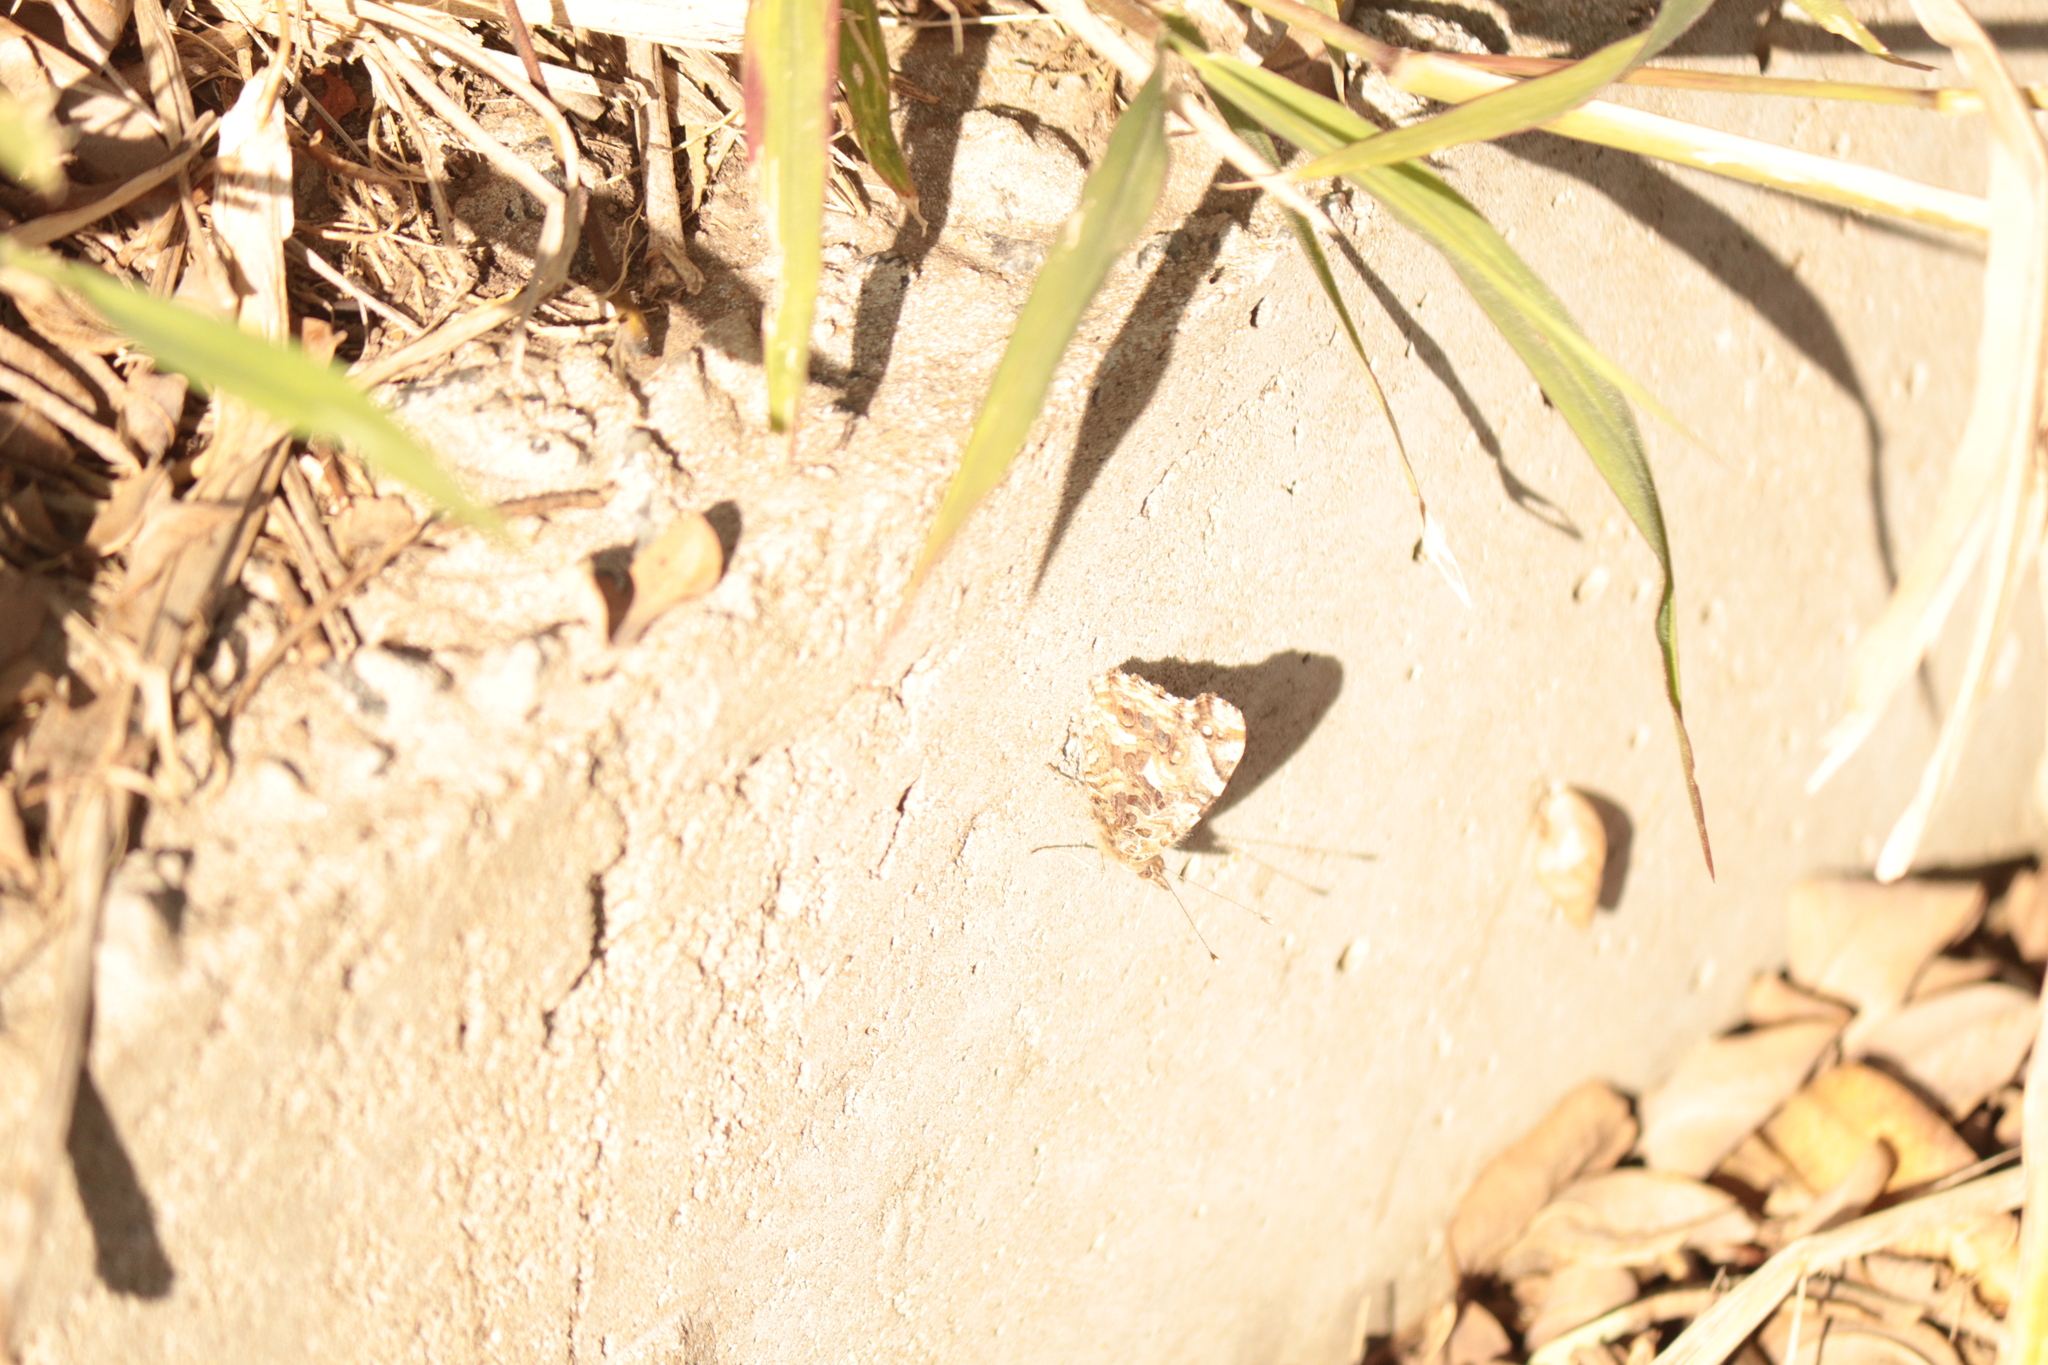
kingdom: Animalia
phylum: Arthropoda
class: Insecta
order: Lepidoptera
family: Nymphalidae
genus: Vanessa
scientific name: Vanessa carye
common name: Subtropical lady
